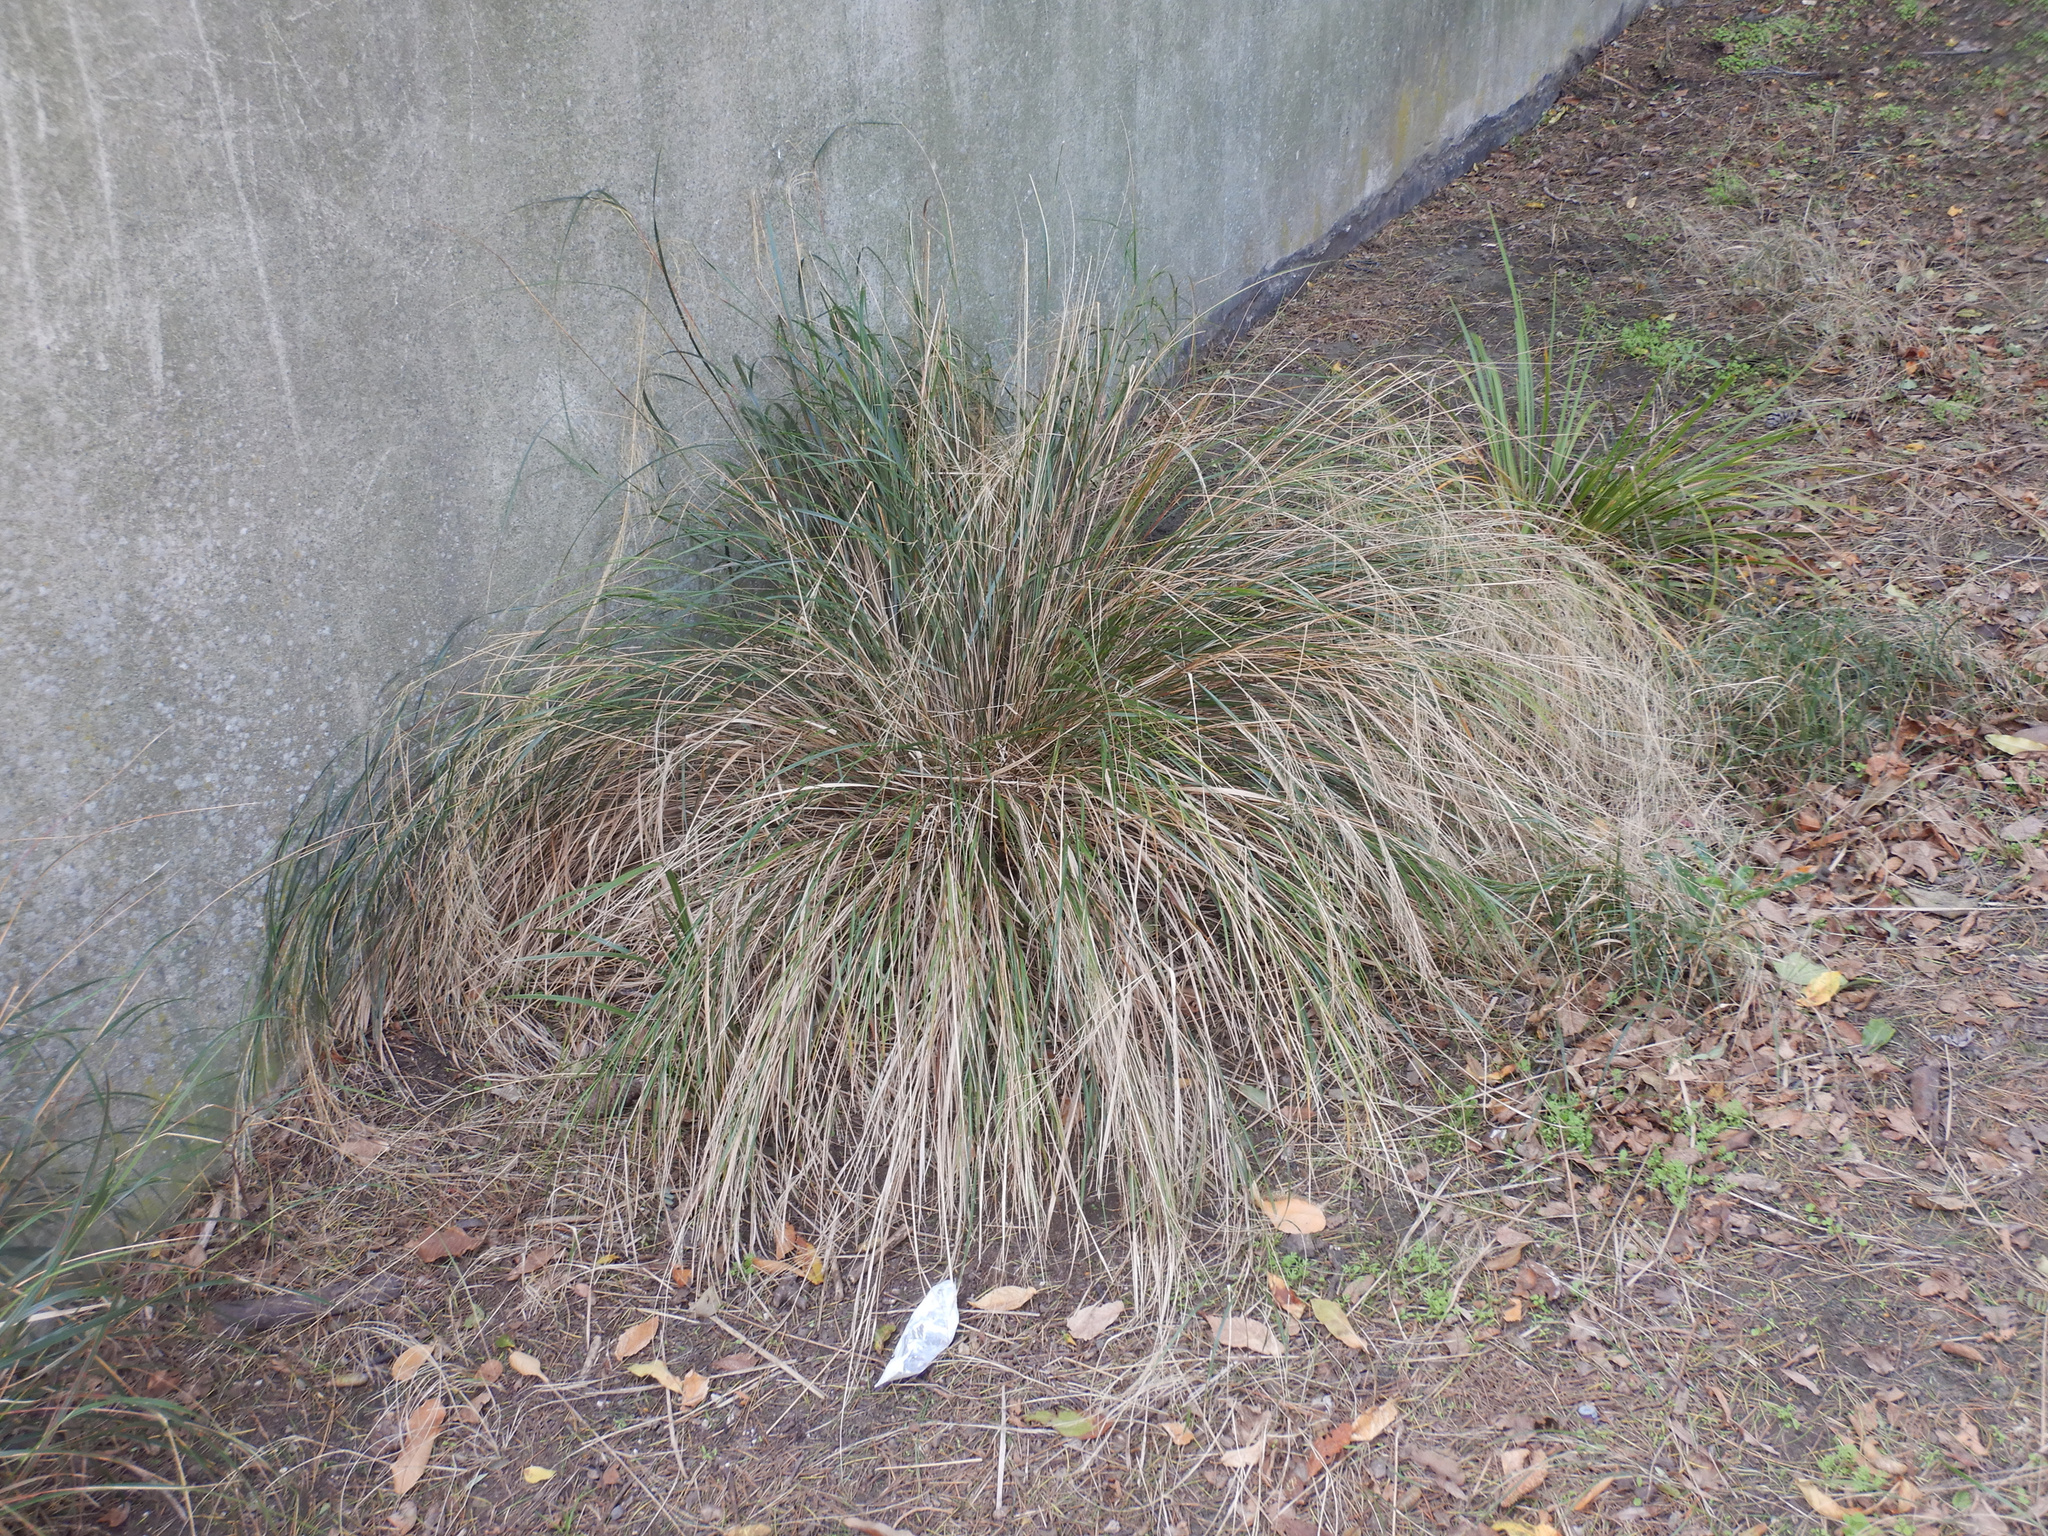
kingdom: Plantae
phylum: Tracheophyta
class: Liliopsida
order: Poales
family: Poaceae
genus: Anemanthele
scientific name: Anemanthele lessoniana
